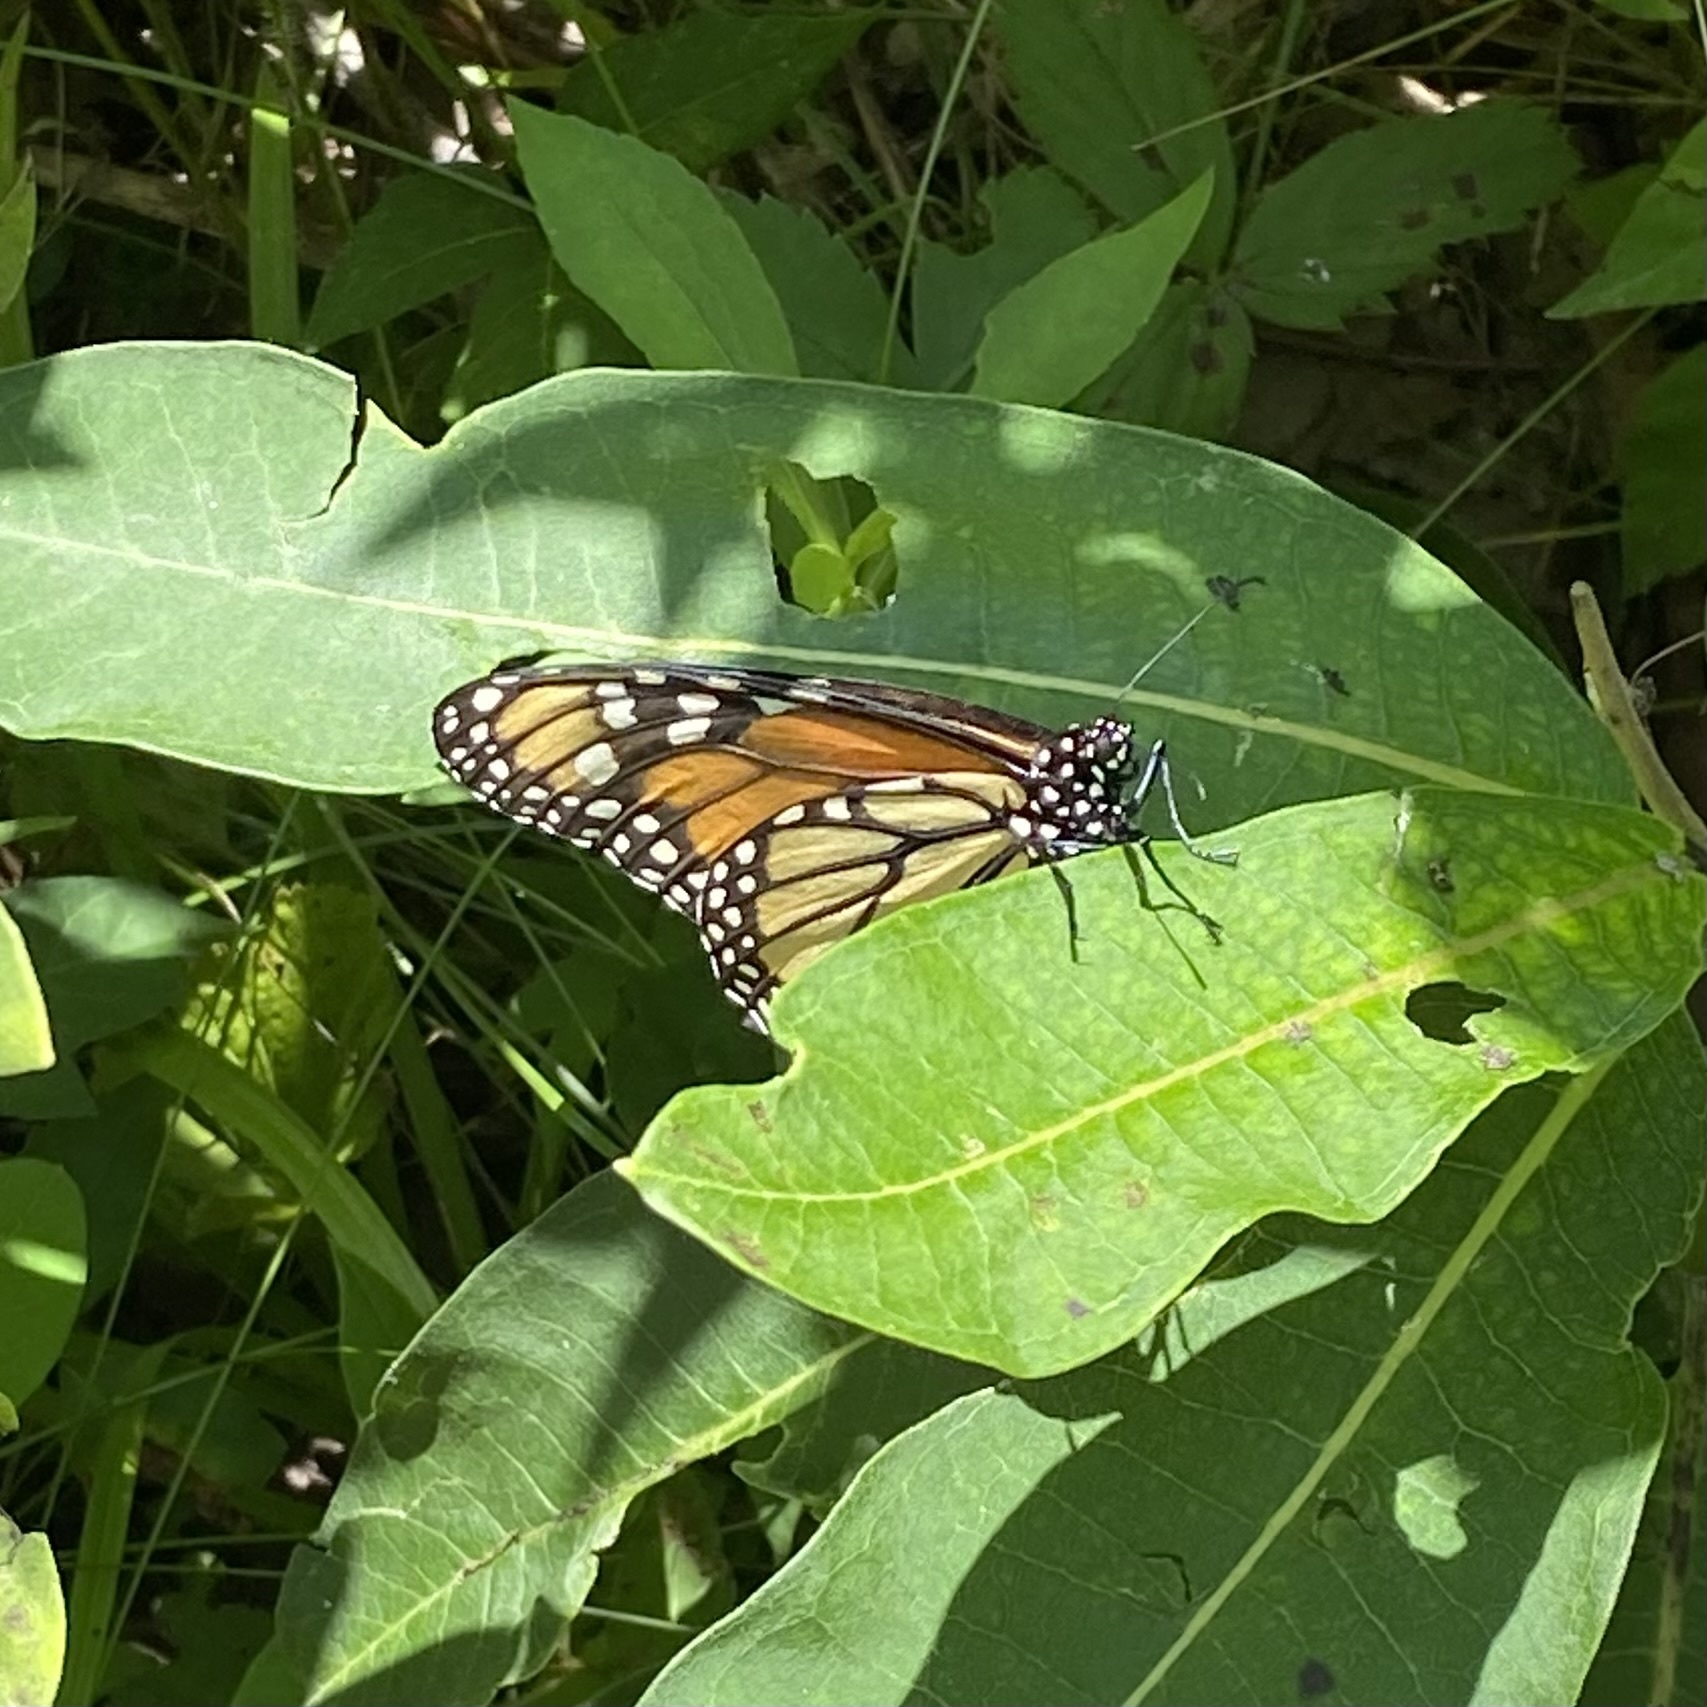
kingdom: Animalia
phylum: Arthropoda
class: Insecta
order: Lepidoptera
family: Nymphalidae
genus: Danaus
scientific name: Danaus plexippus
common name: Monarch
